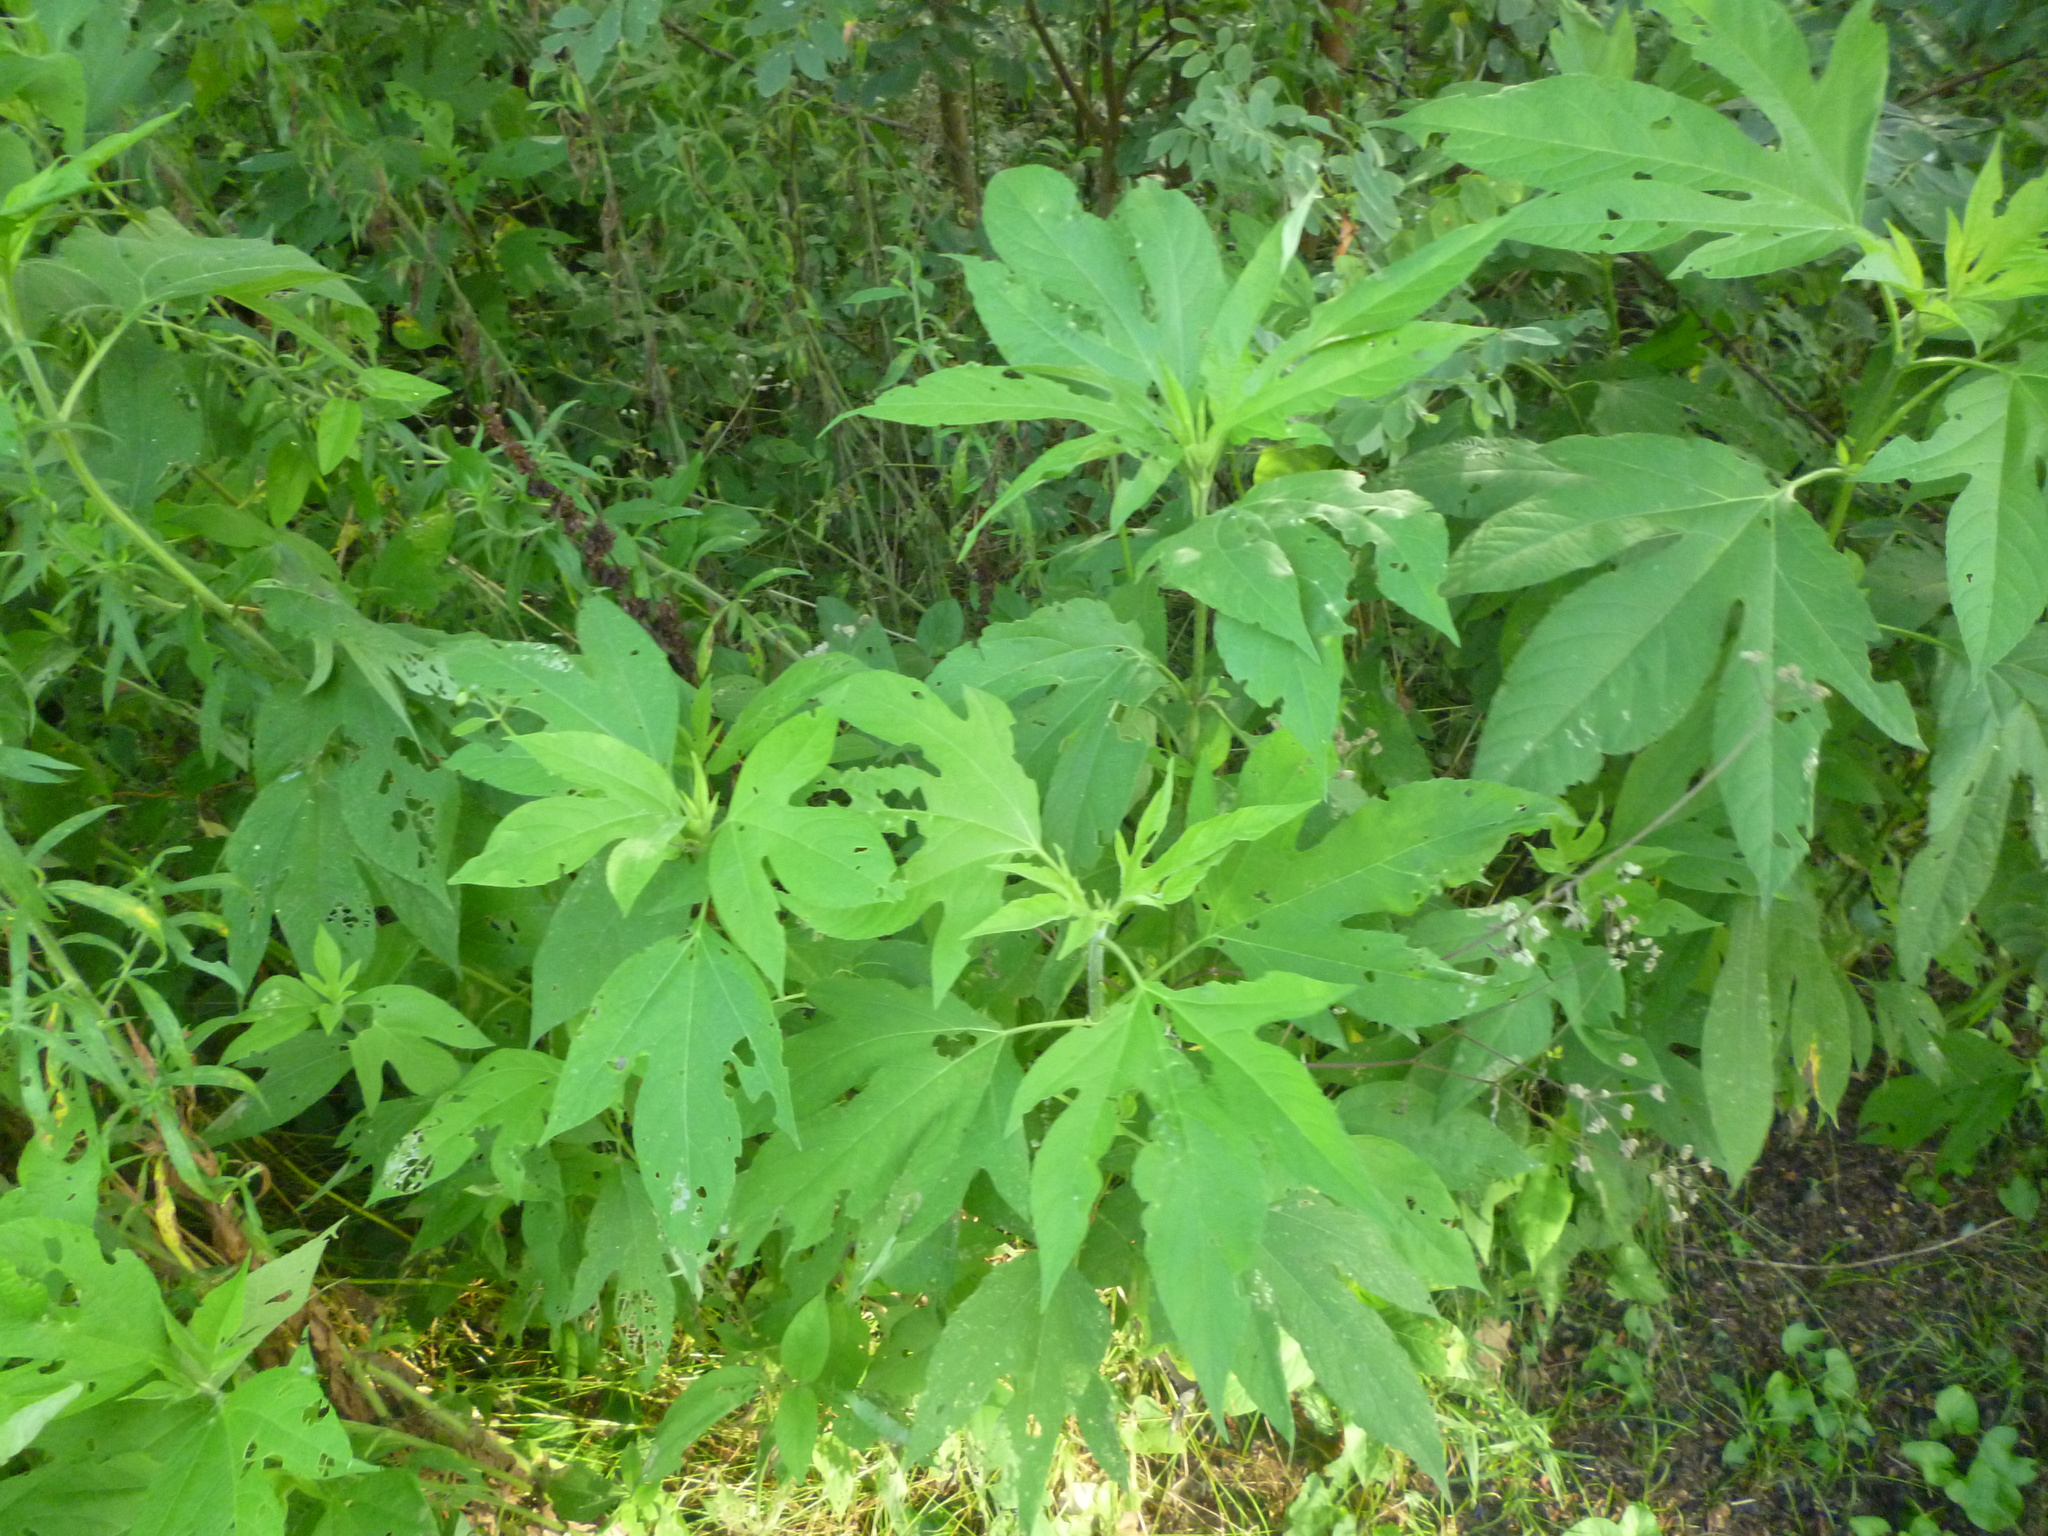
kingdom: Plantae
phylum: Tracheophyta
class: Magnoliopsida
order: Asterales
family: Asteraceae
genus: Ambrosia
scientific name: Ambrosia trifida
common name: Giant ragweed
